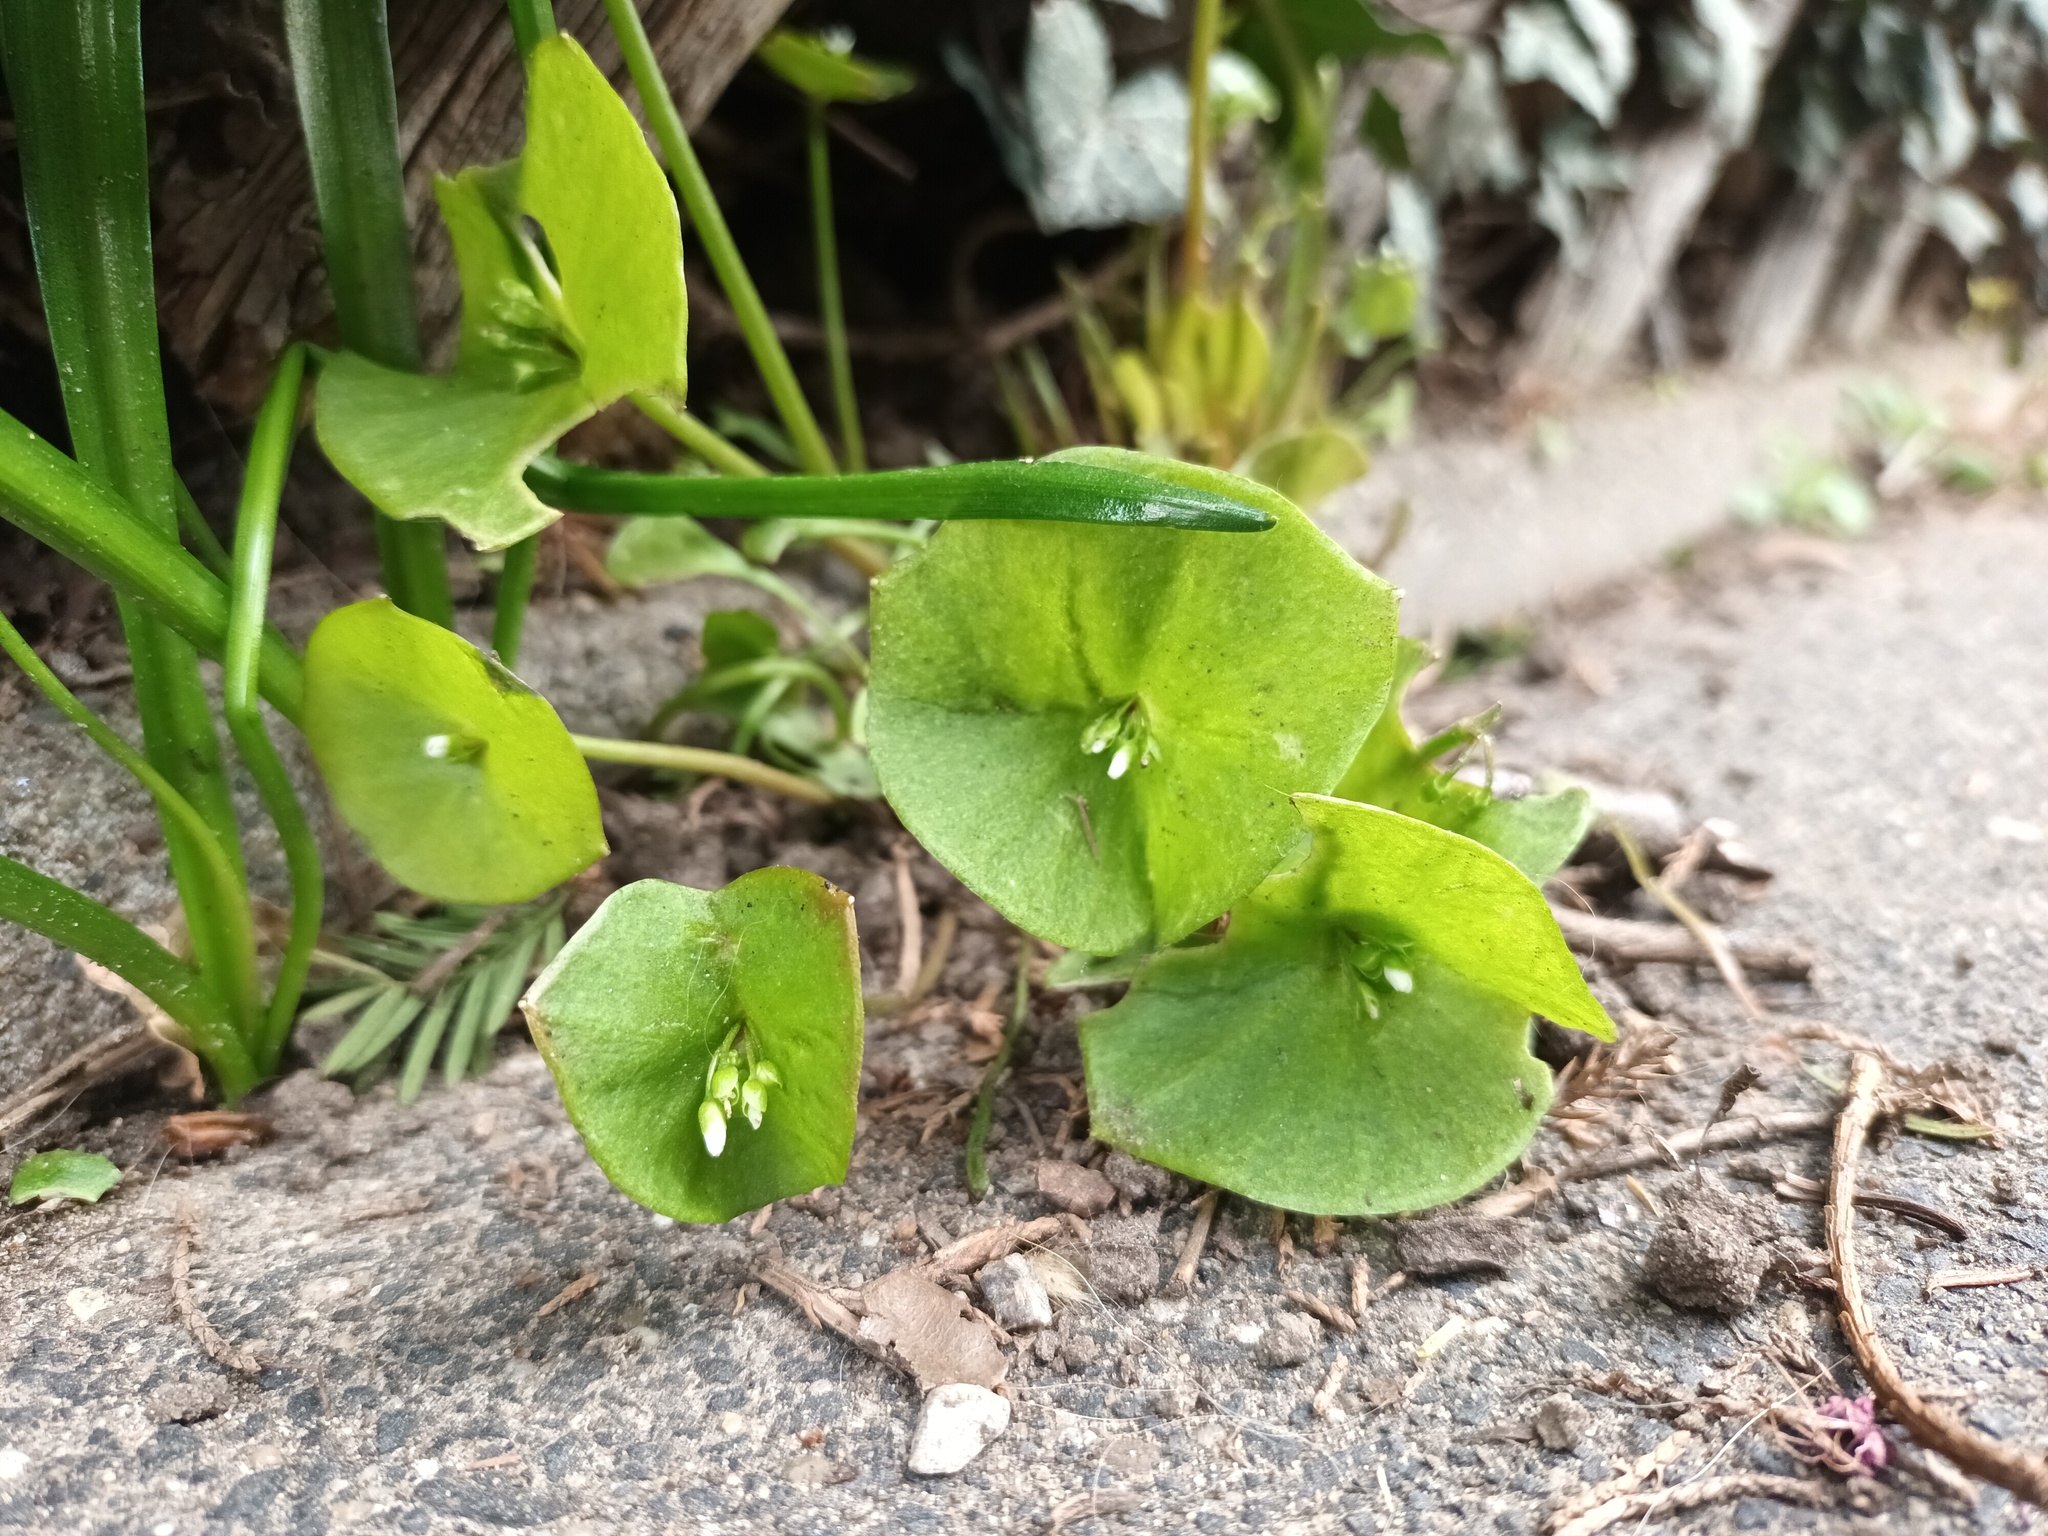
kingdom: Plantae
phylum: Tracheophyta
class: Magnoliopsida
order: Caryophyllales
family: Montiaceae
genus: Claytonia
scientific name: Claytonia perfoliata
